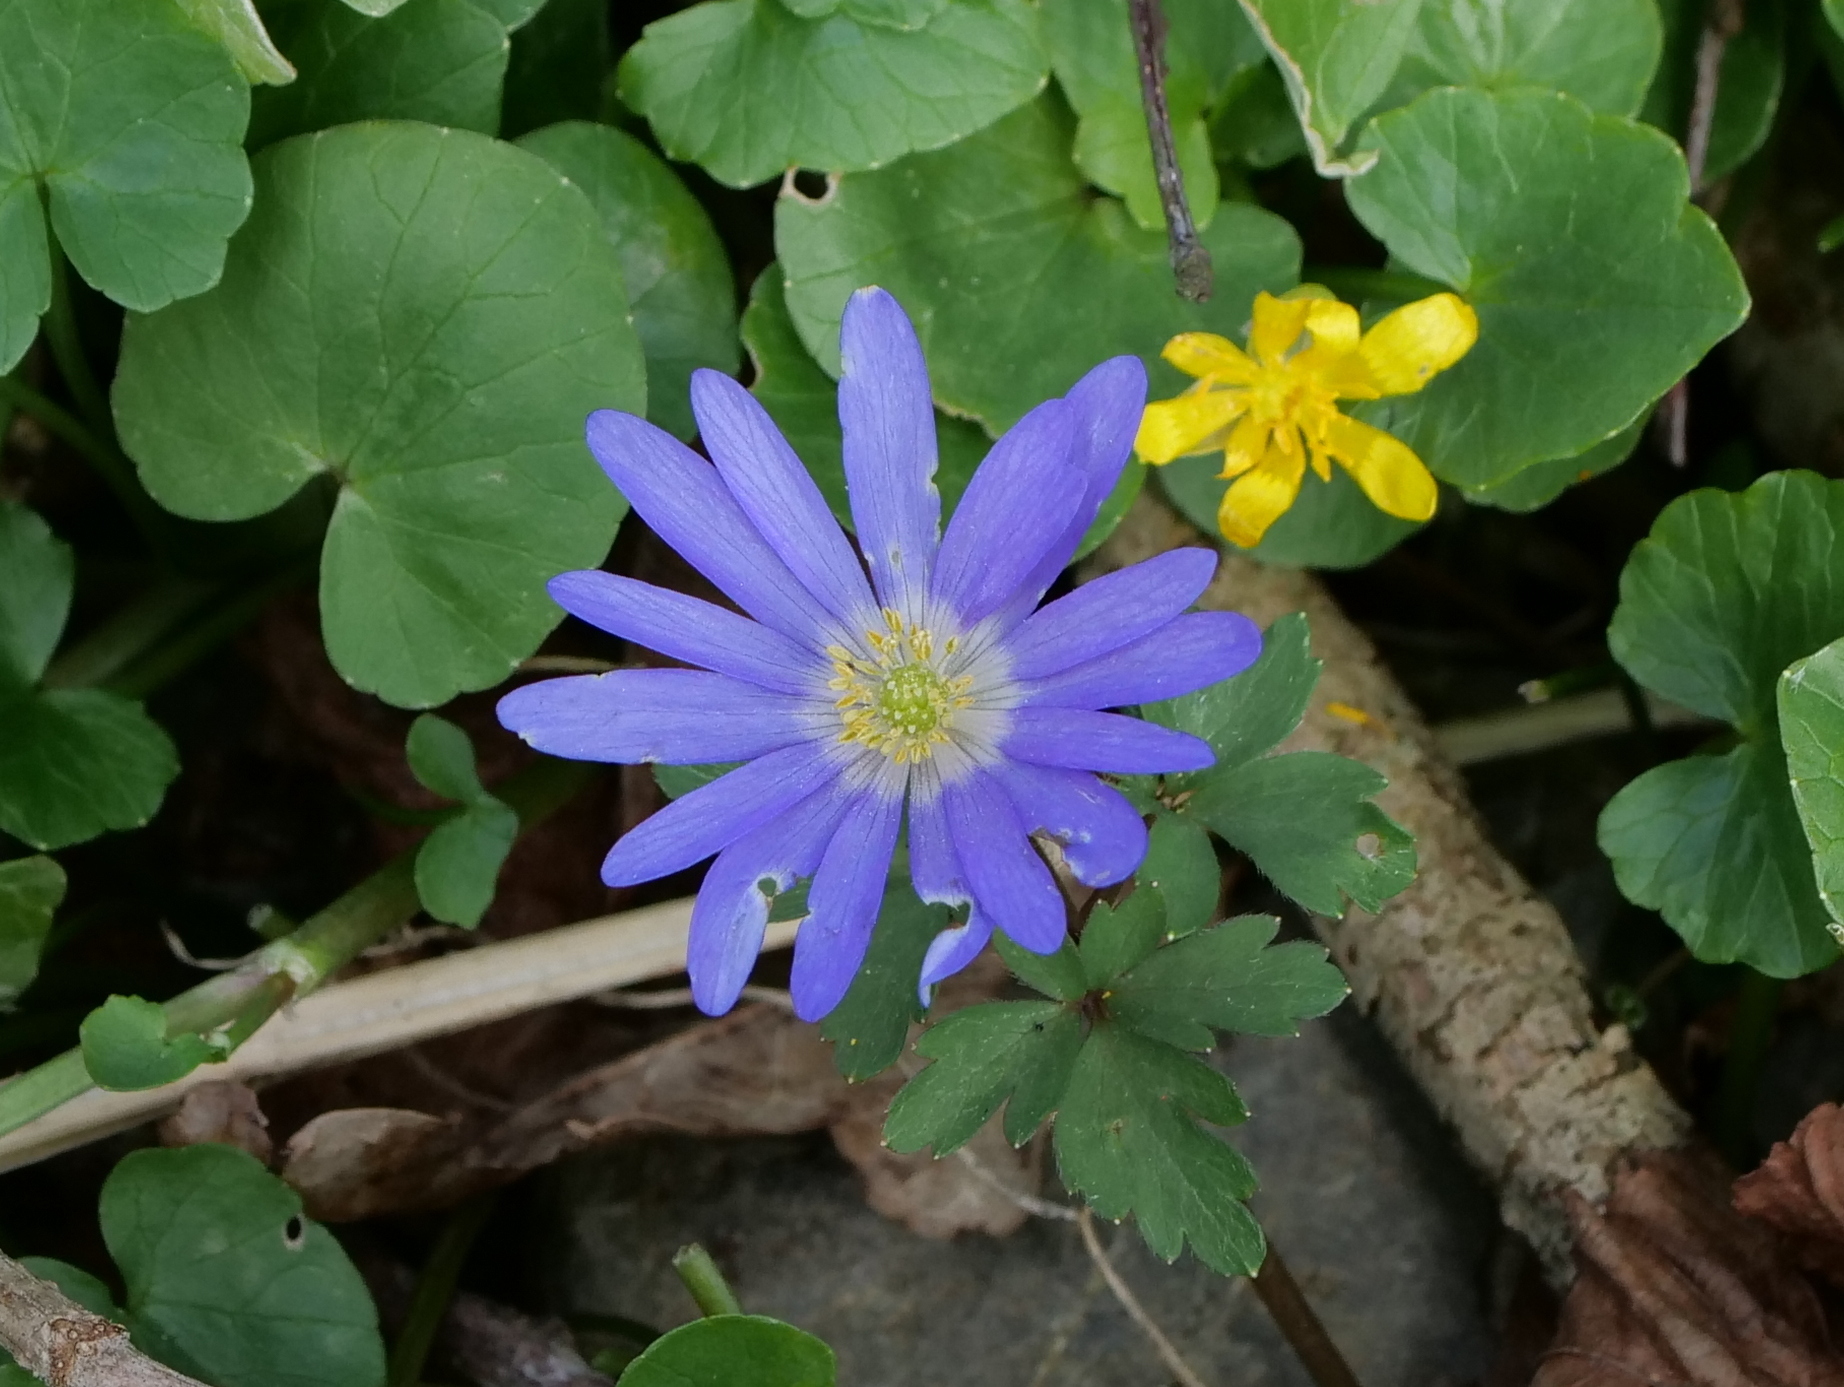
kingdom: Plantae
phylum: Tracheophyta
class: Magnoliopsida
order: Ranunculales
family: Ranunculaceae
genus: Anemone
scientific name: Anemone blanda
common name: Balkan anemone
